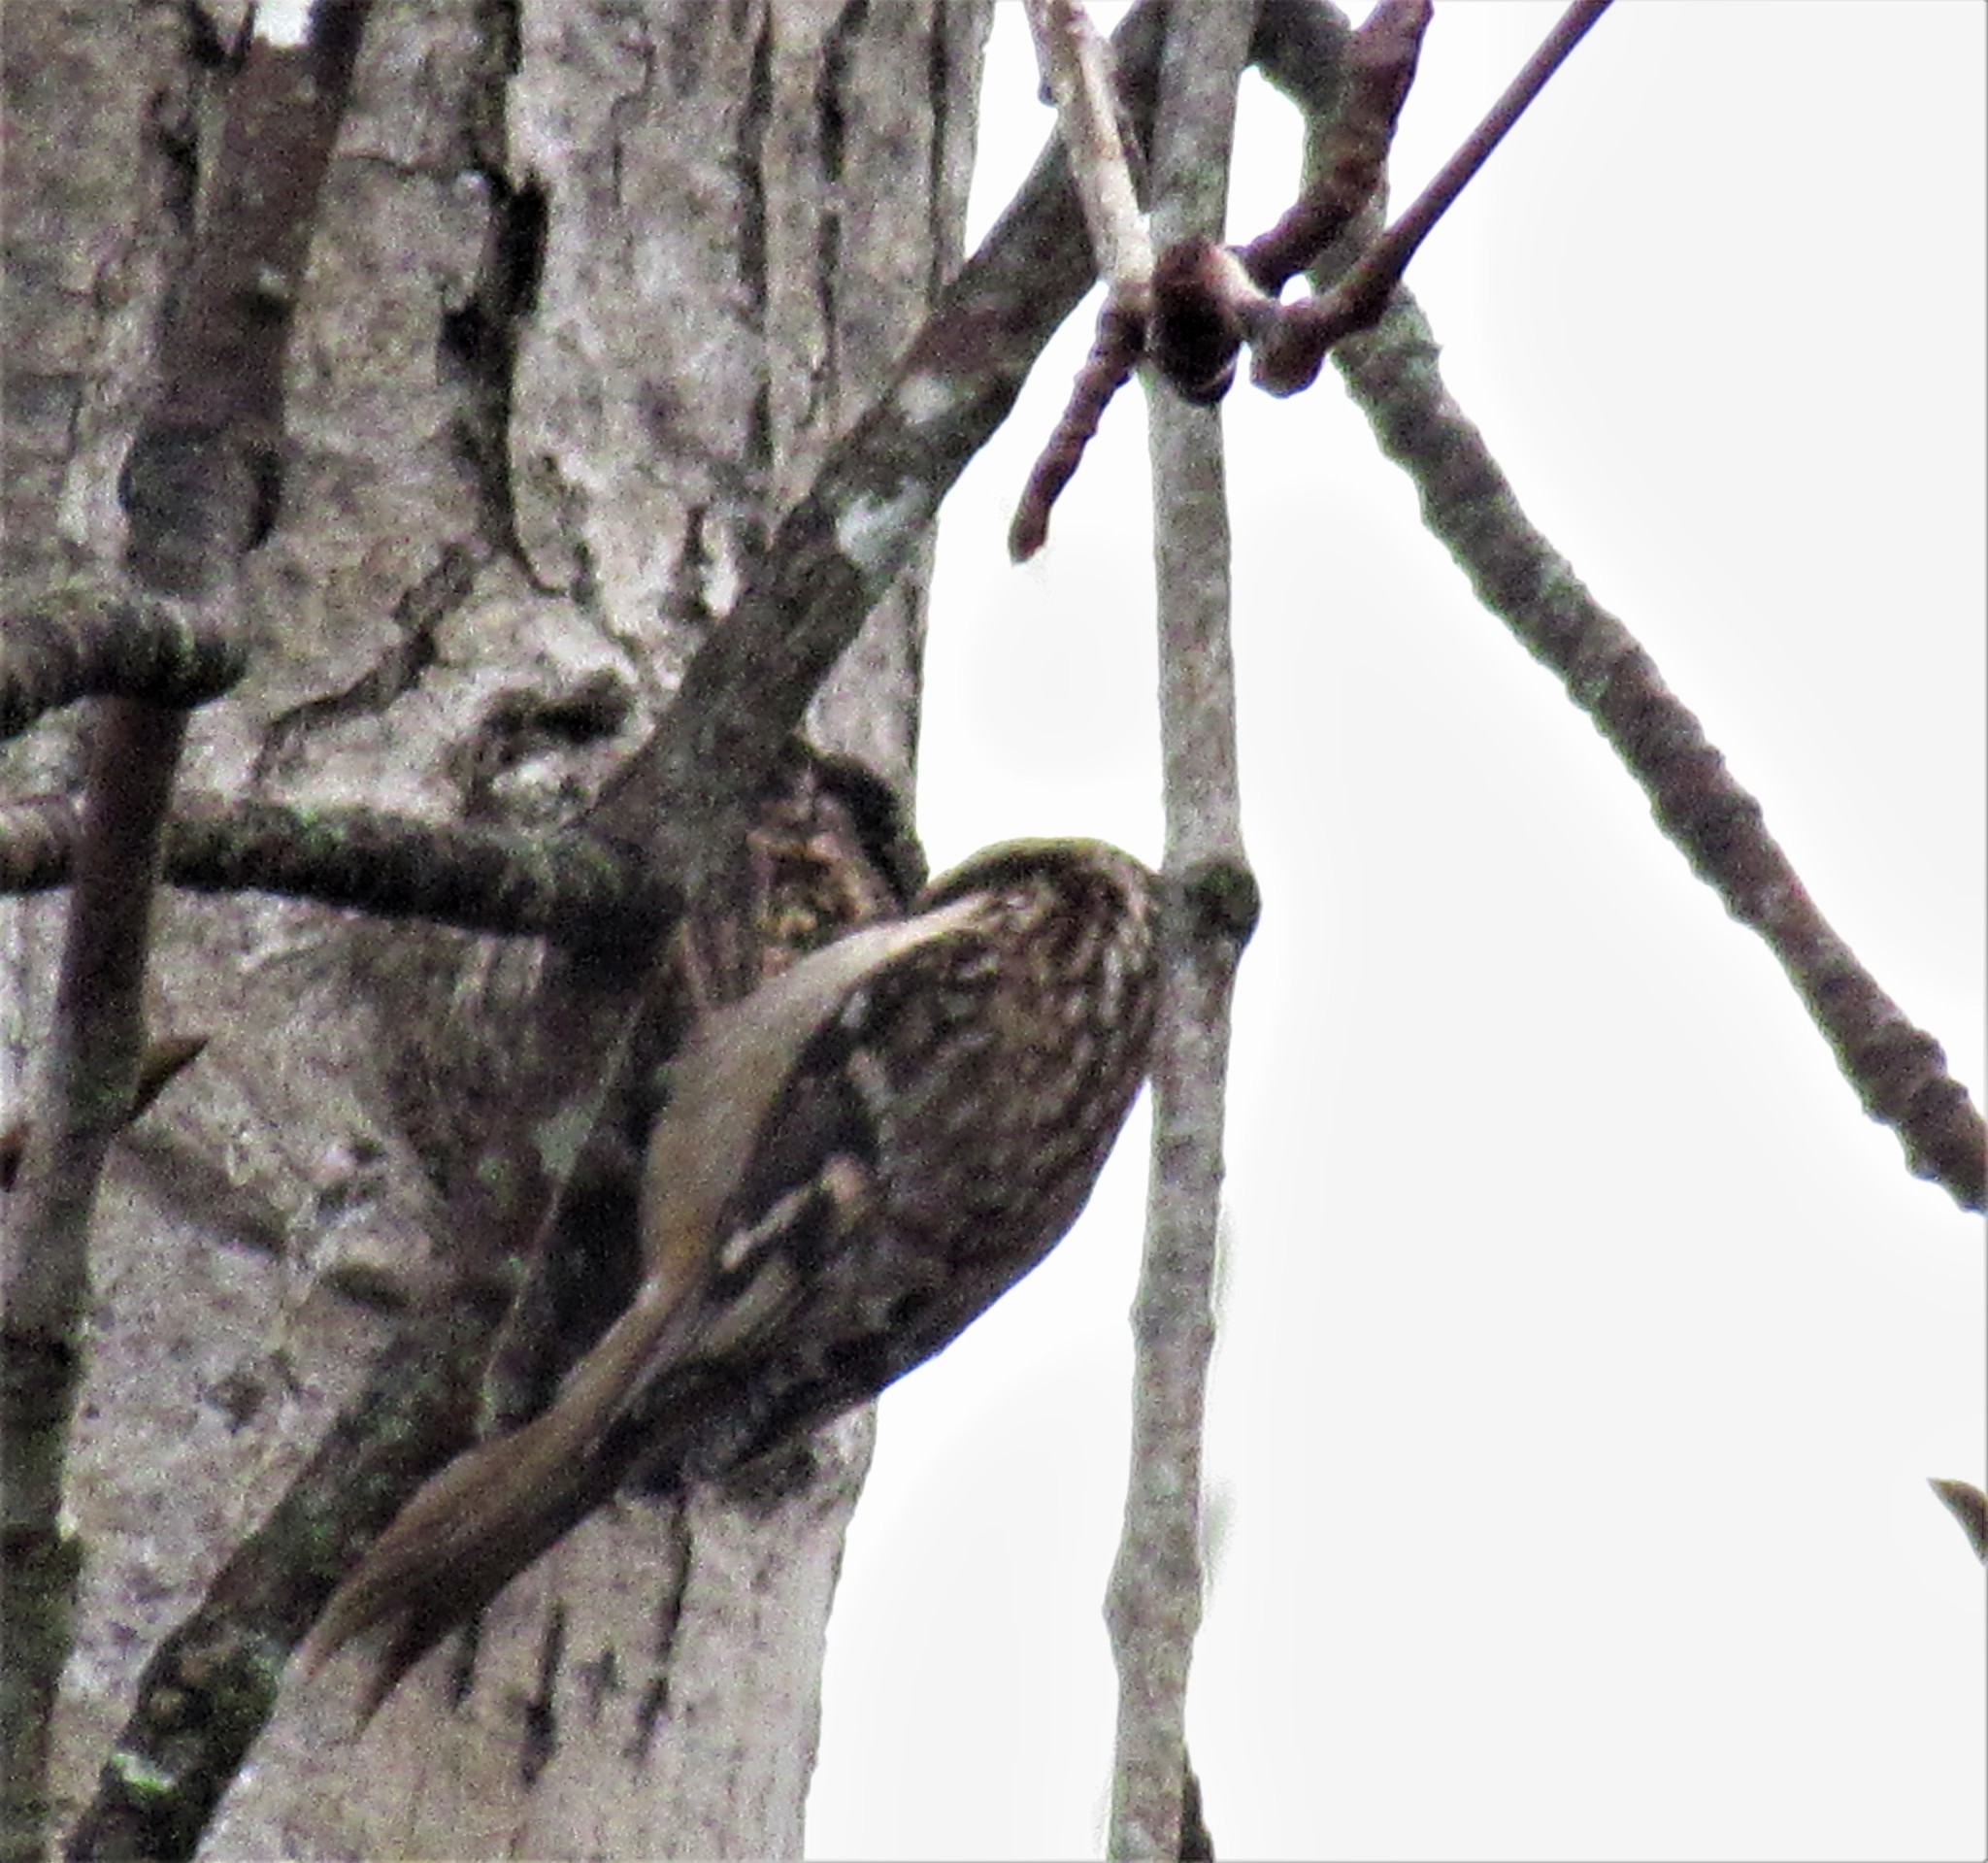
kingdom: Animalia
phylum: Chordata
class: Aves
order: Passeriformes
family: Certhiidae
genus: Certhia
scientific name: Certhia americana
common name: Brown creeper
